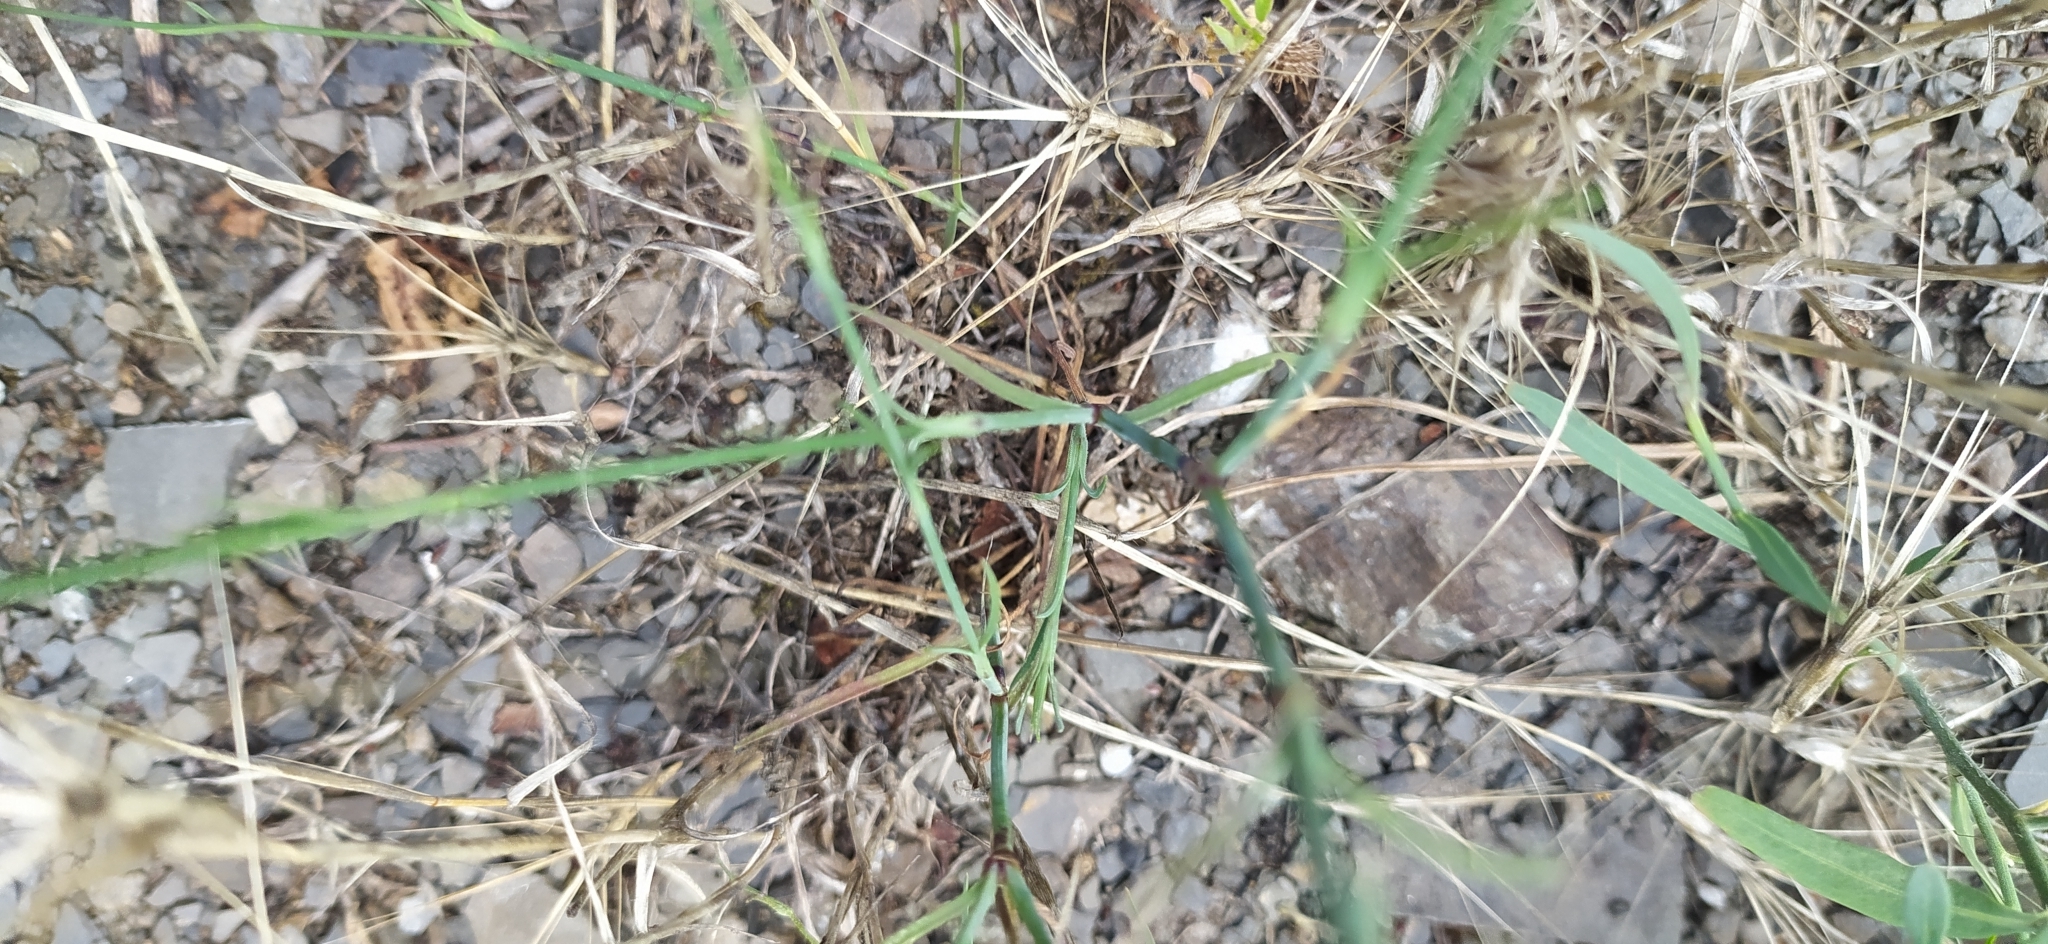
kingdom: Plantae
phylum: Tracheophyta
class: Magnoliopsida
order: Caryophyllales
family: Caryophyllaceae
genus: Petrorhagia
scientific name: Petrorhagia prolifera
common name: Proliferous pink
